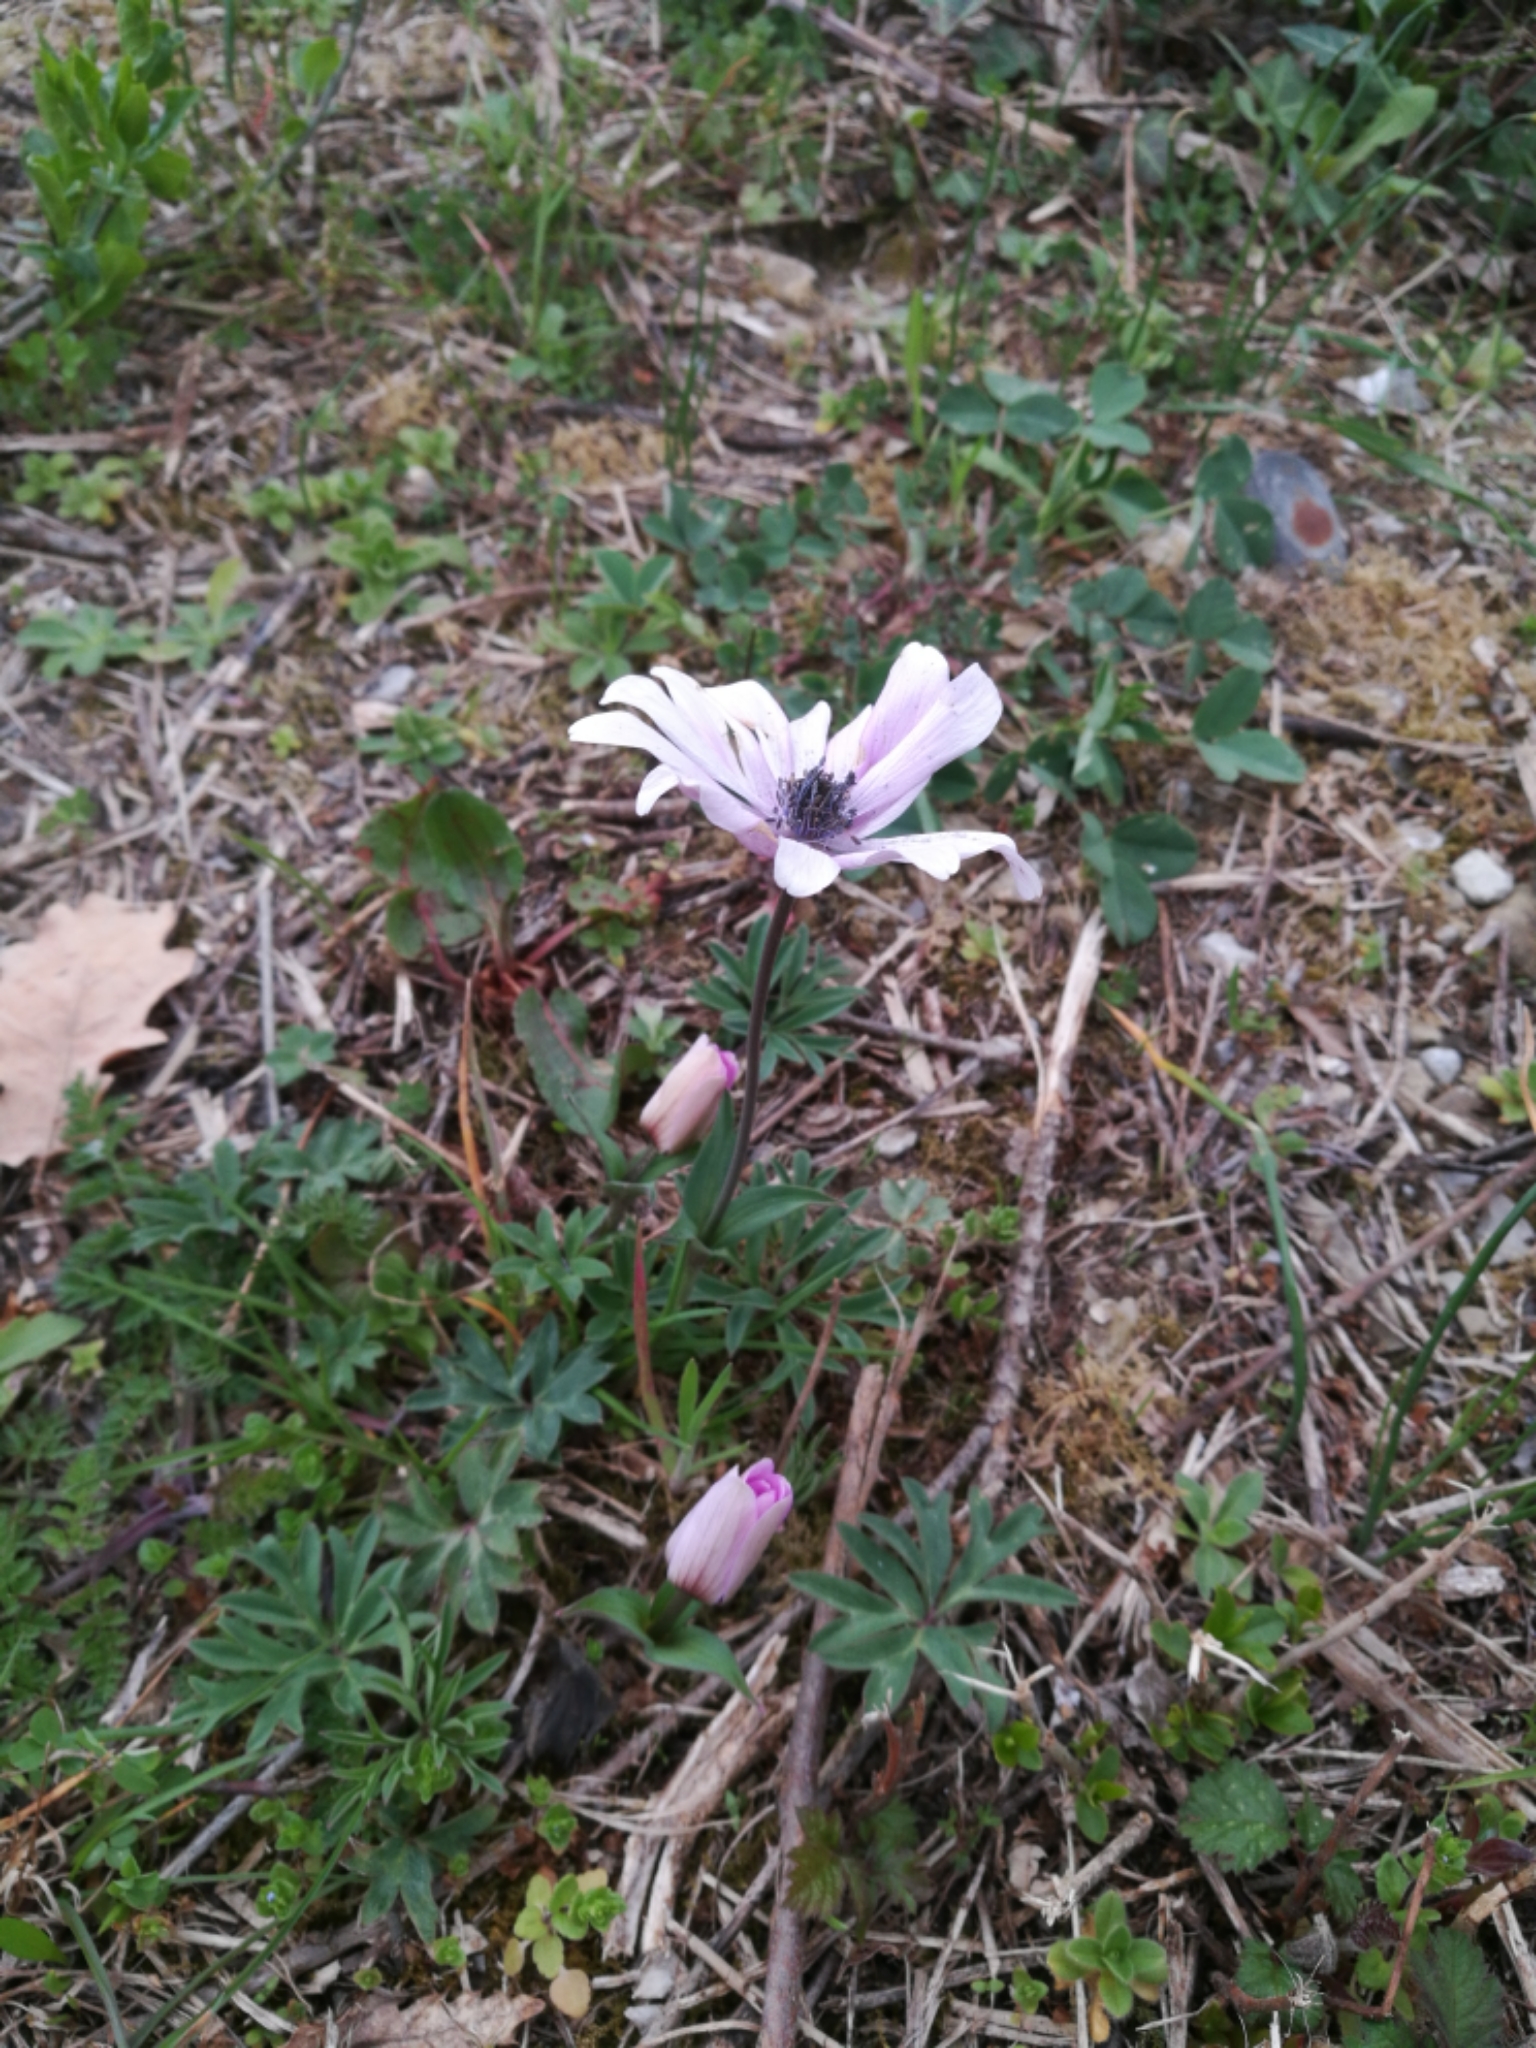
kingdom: Plantae
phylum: Tracheophyta
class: Magnoliopsida
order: Ranunculales
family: Ranunculaceae
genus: Anemone
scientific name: Anemone hortensis
